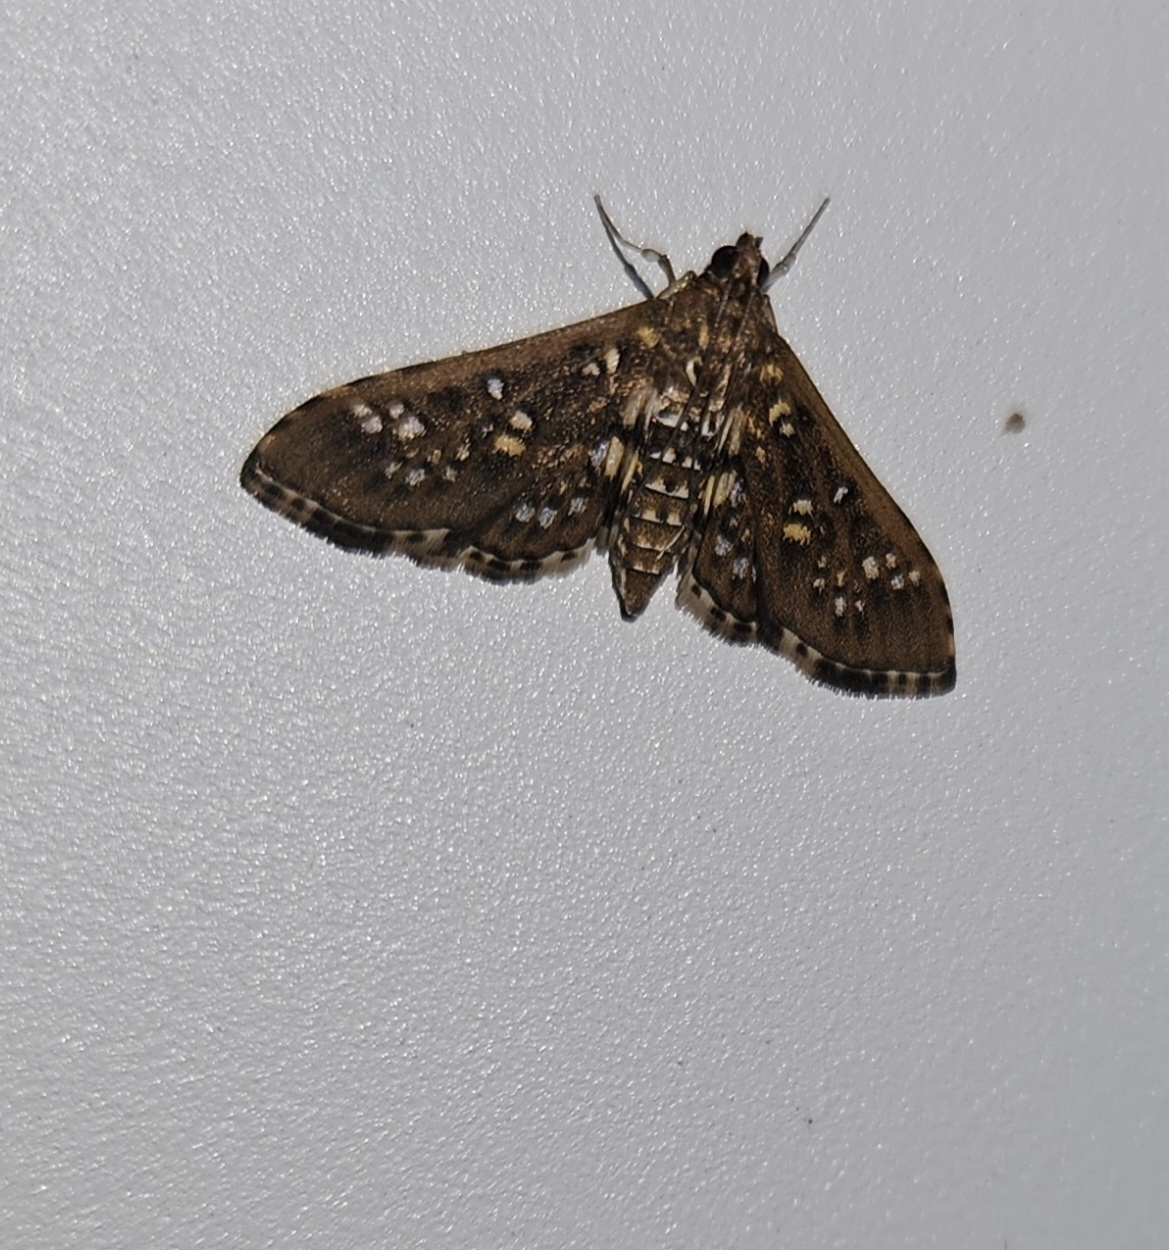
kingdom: Animalia
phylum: Arthropoda
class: Insecta
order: Lepidoptera
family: Crambidae
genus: Samea
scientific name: Samea ecclesialis
